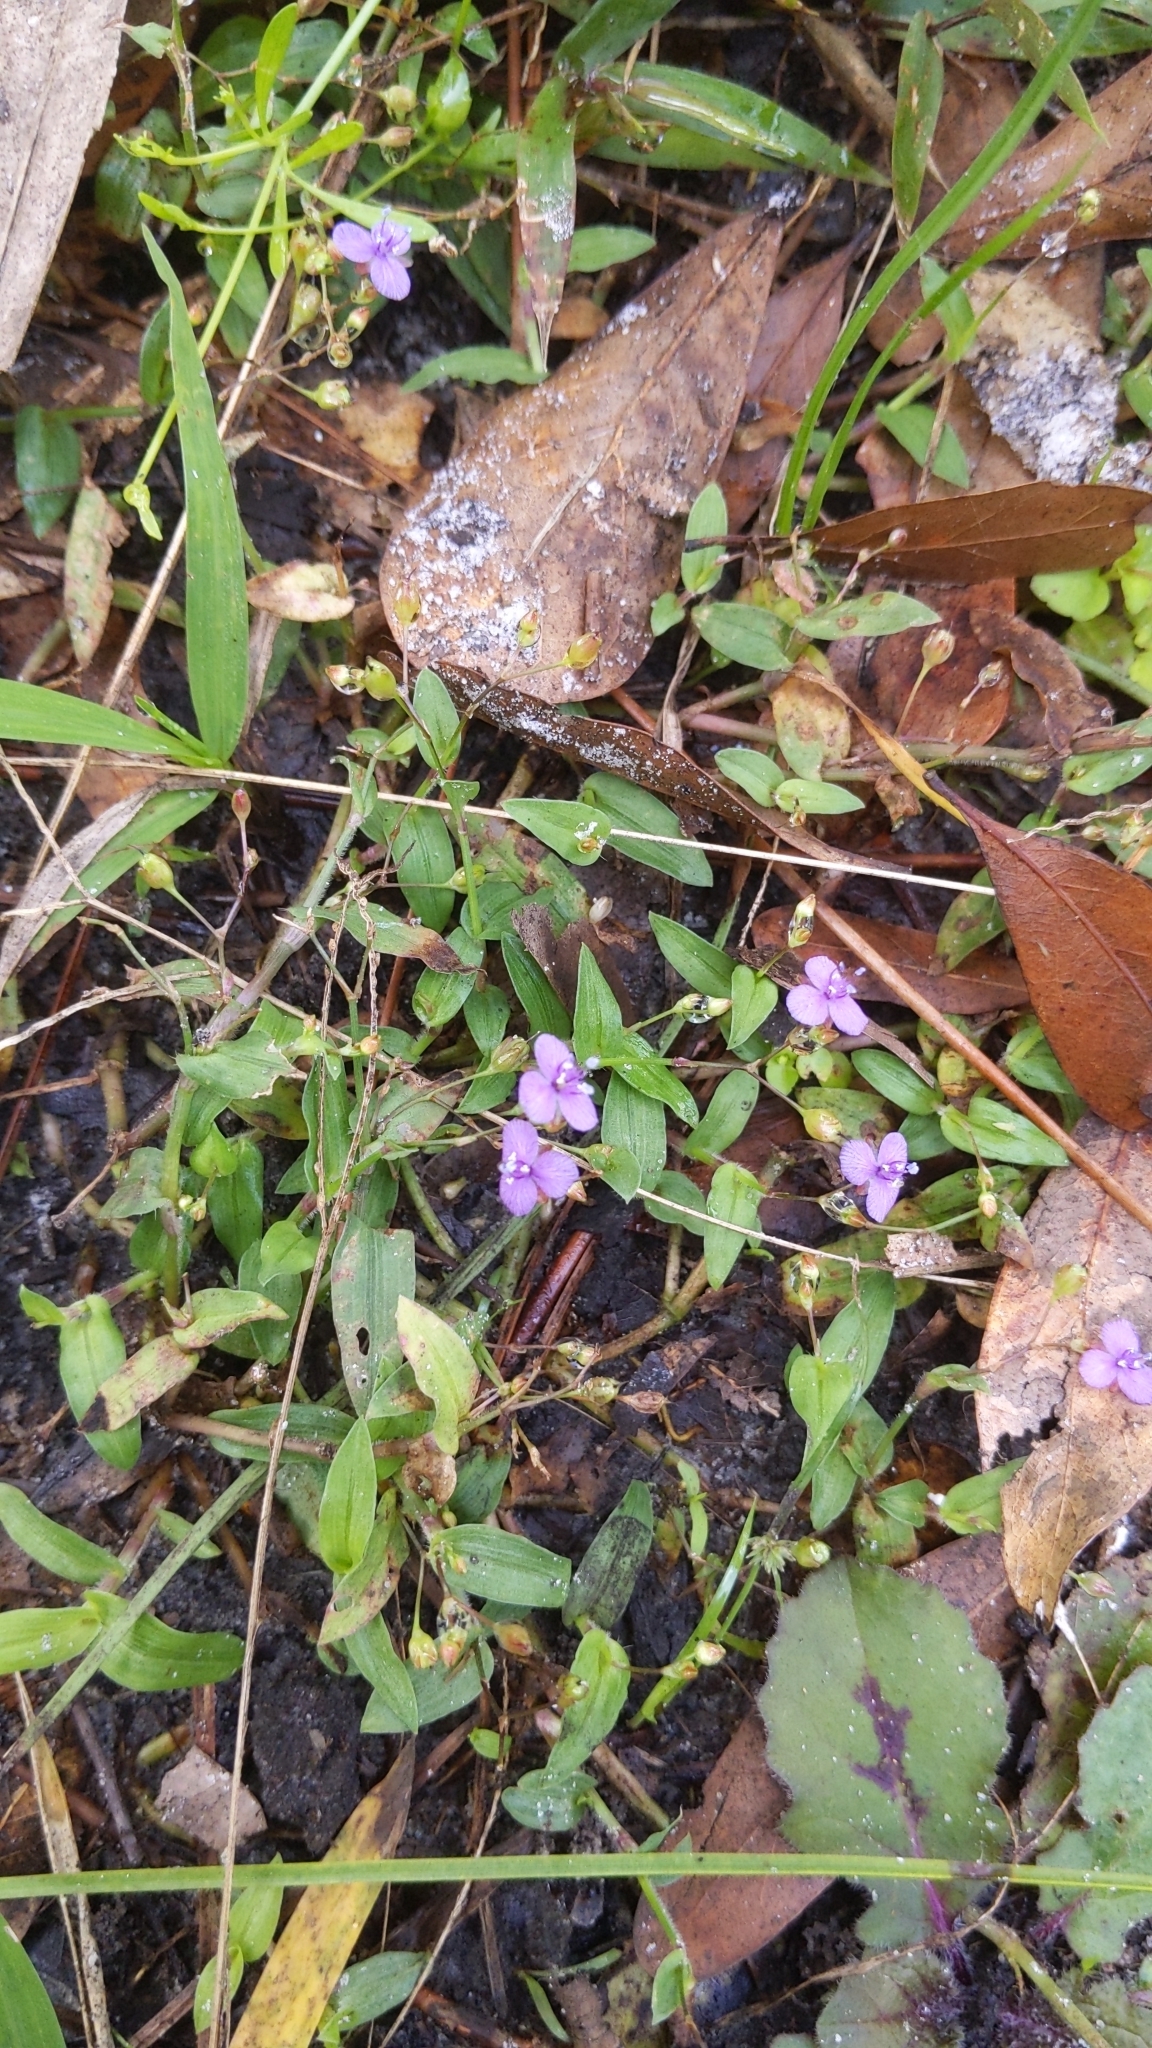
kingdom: Plantae
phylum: Tracheophyta
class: Liliopsida
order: Commelinales
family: Commelinaceae
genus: Murdannia
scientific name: Murdannia spirata
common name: Asiatic dewflower
